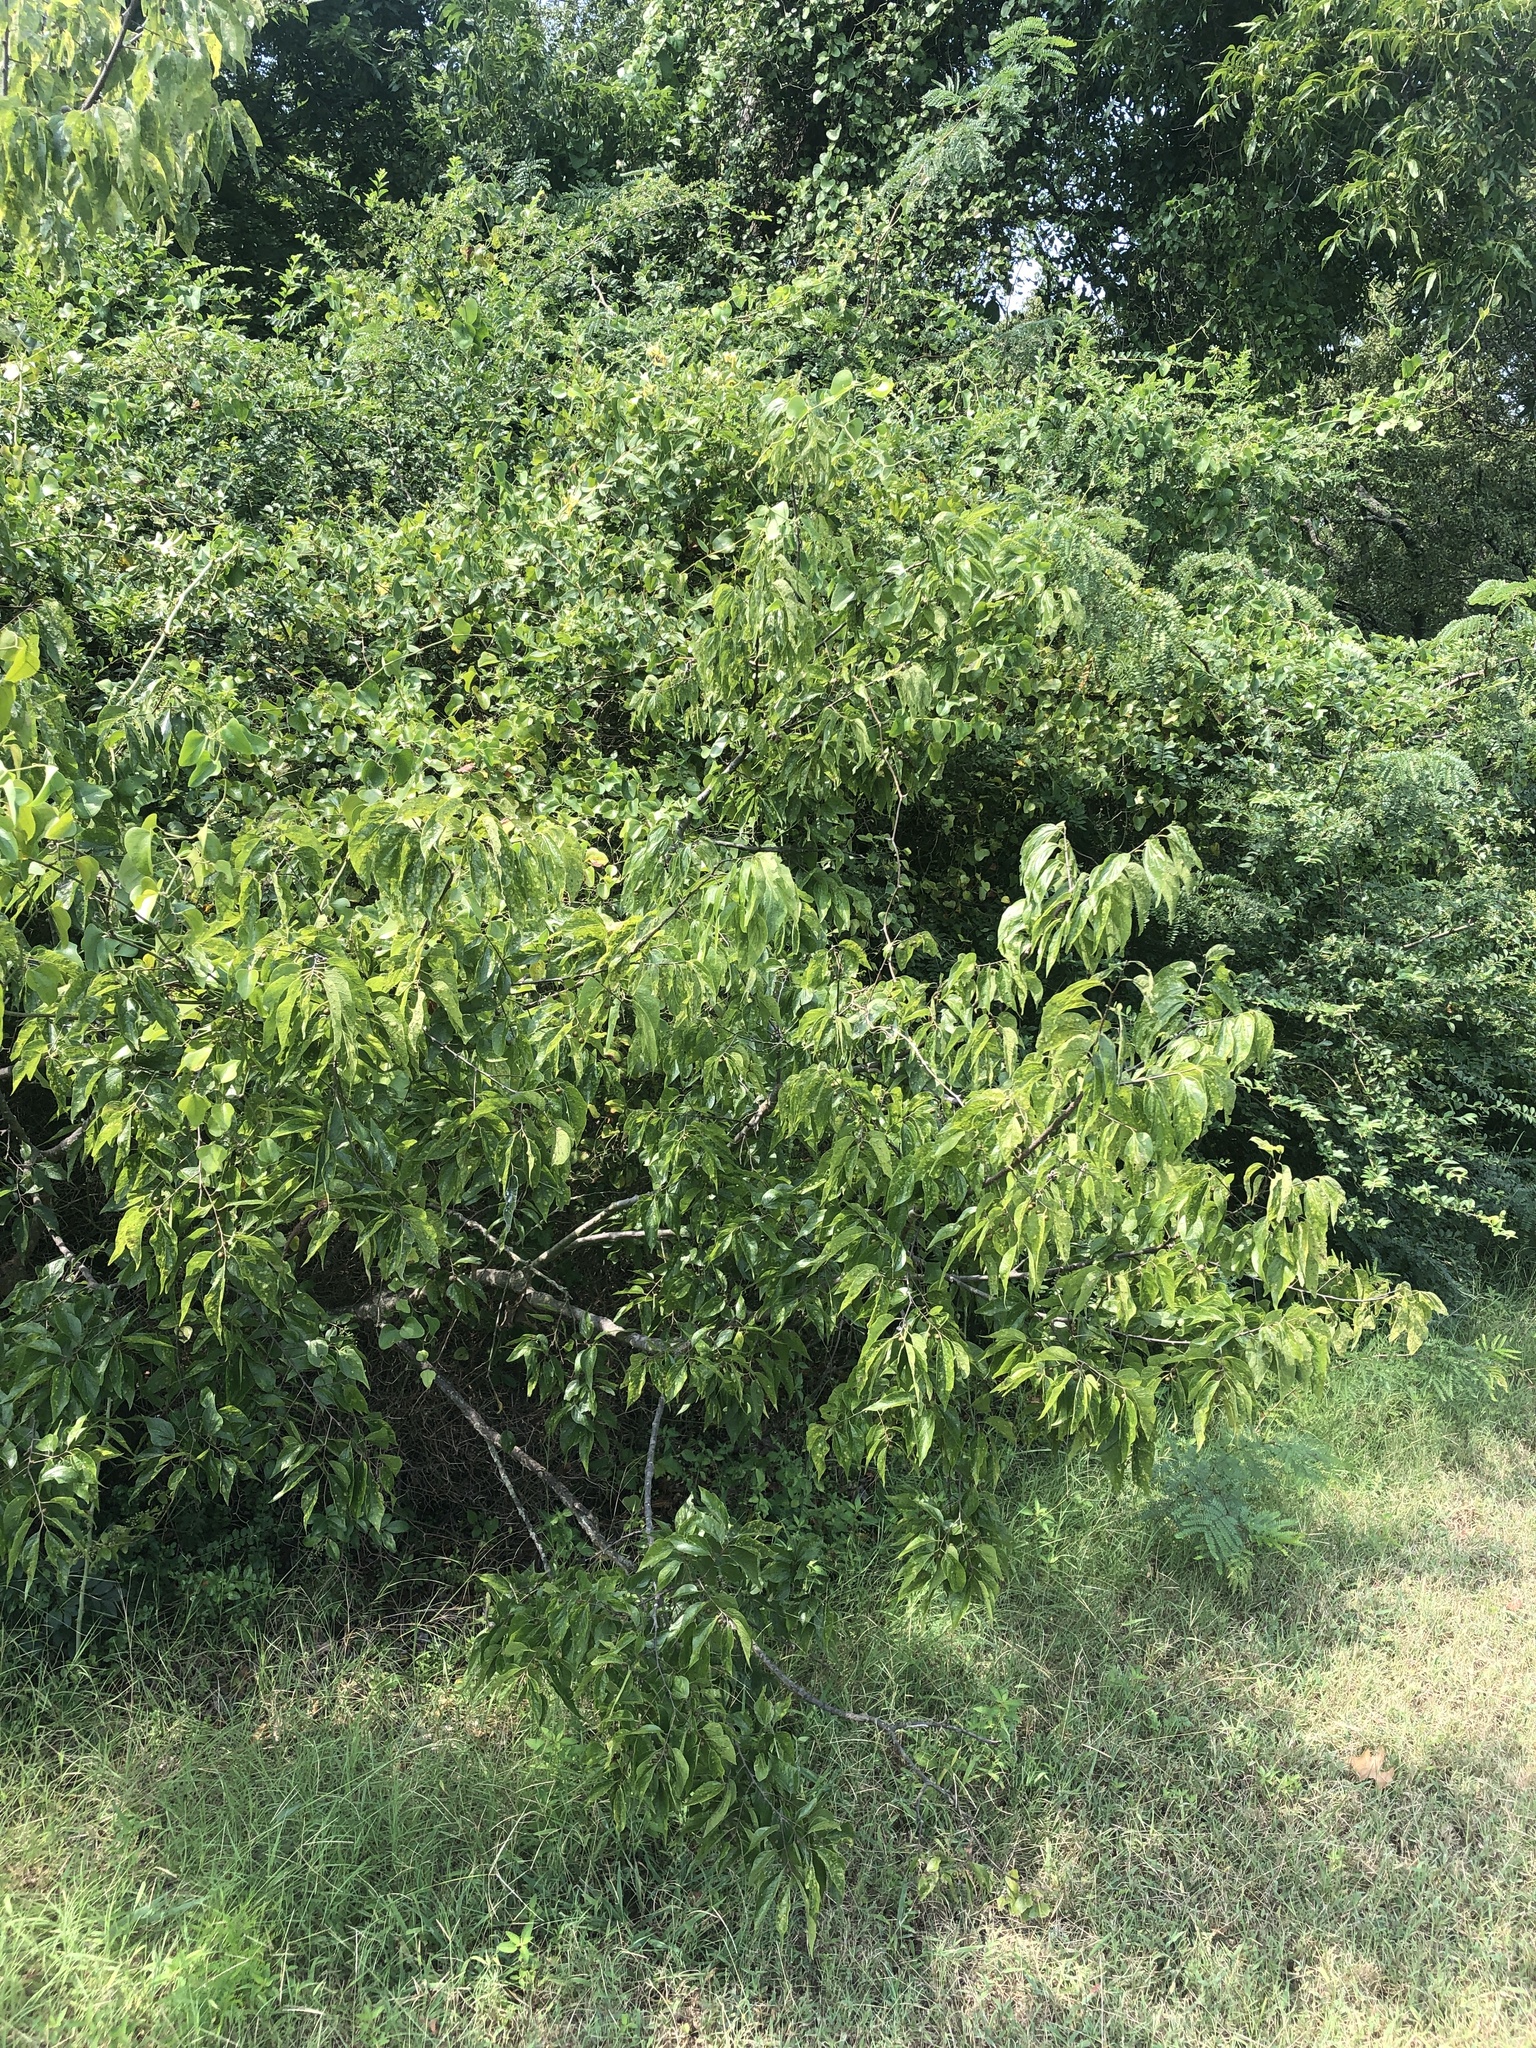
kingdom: Plantae
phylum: Tracheophyta
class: Magnoliopsida
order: Rosales
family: Cannabaceae
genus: Celtis
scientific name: Celtis laevigata
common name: Sugarberry
